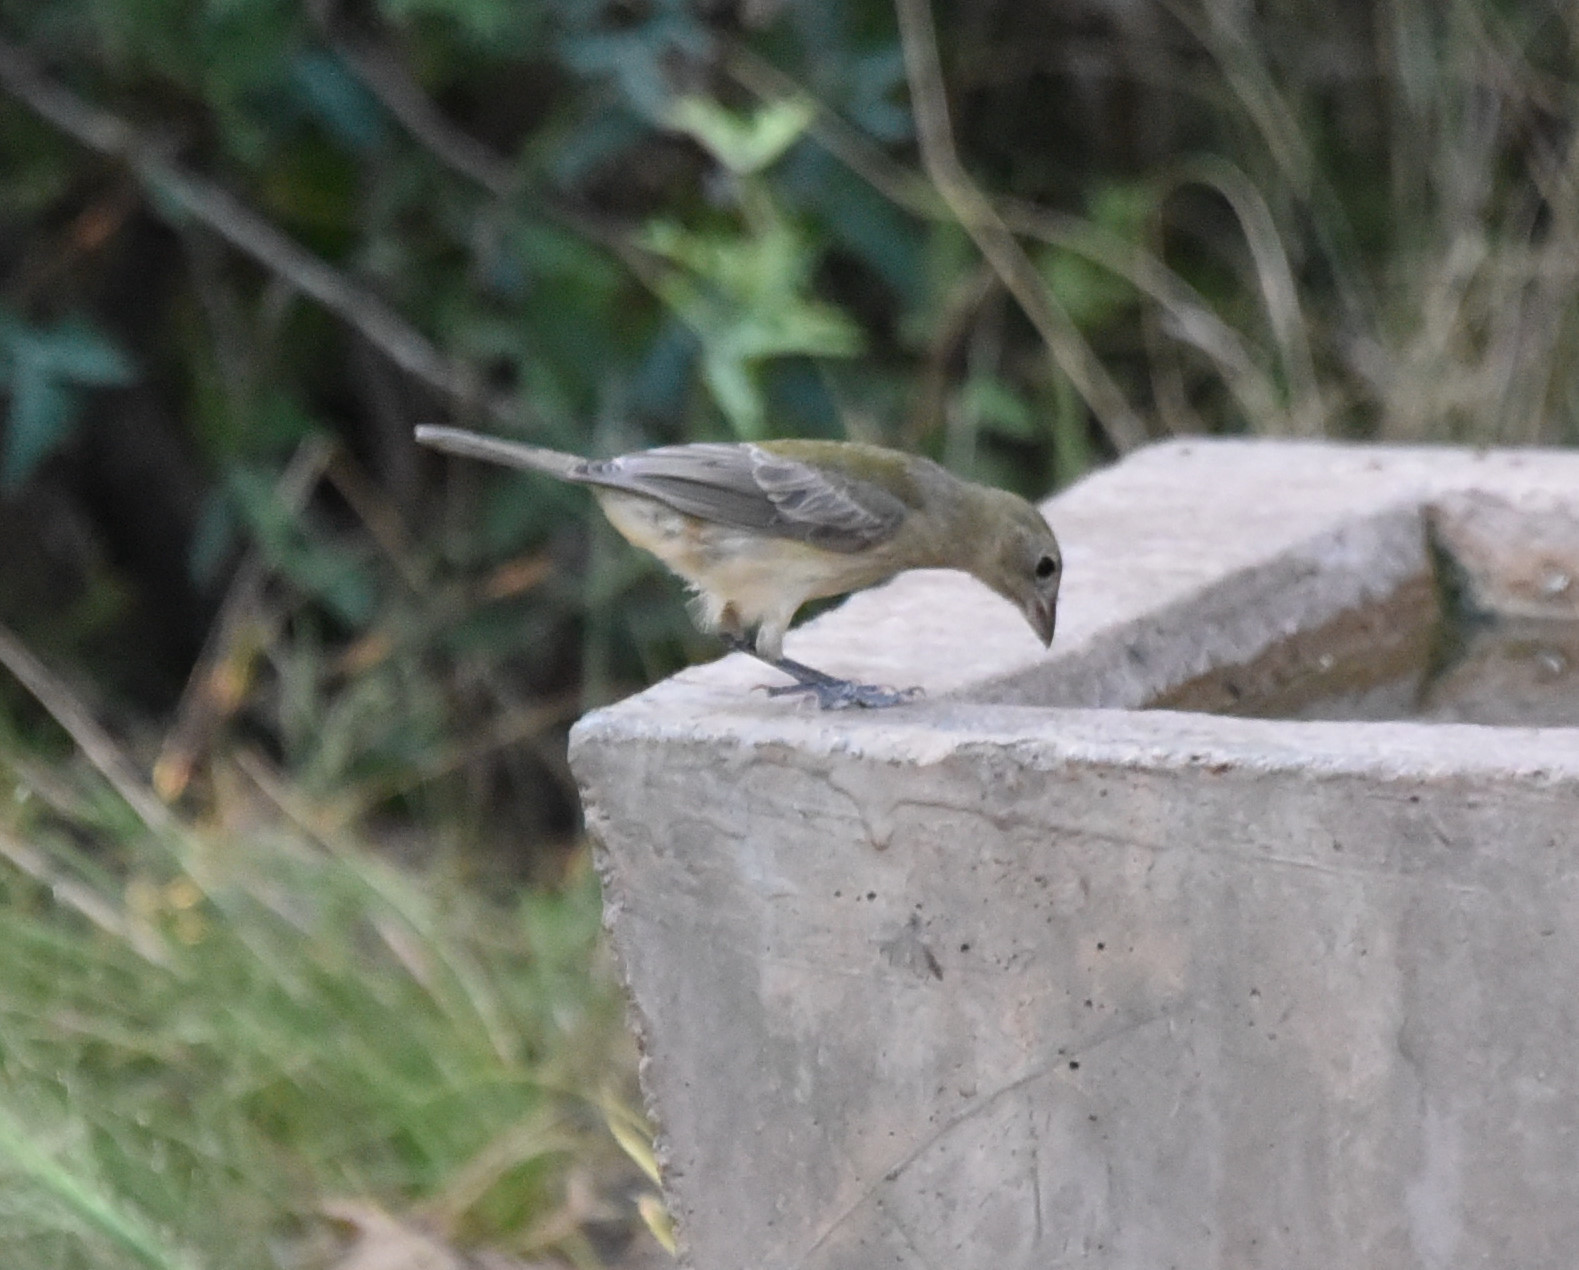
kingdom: Animalia
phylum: Chordata
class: Aves
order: Passeriformes
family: Cardinalidae
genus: Passerina
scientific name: Passerina ciris
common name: Painted bunting
